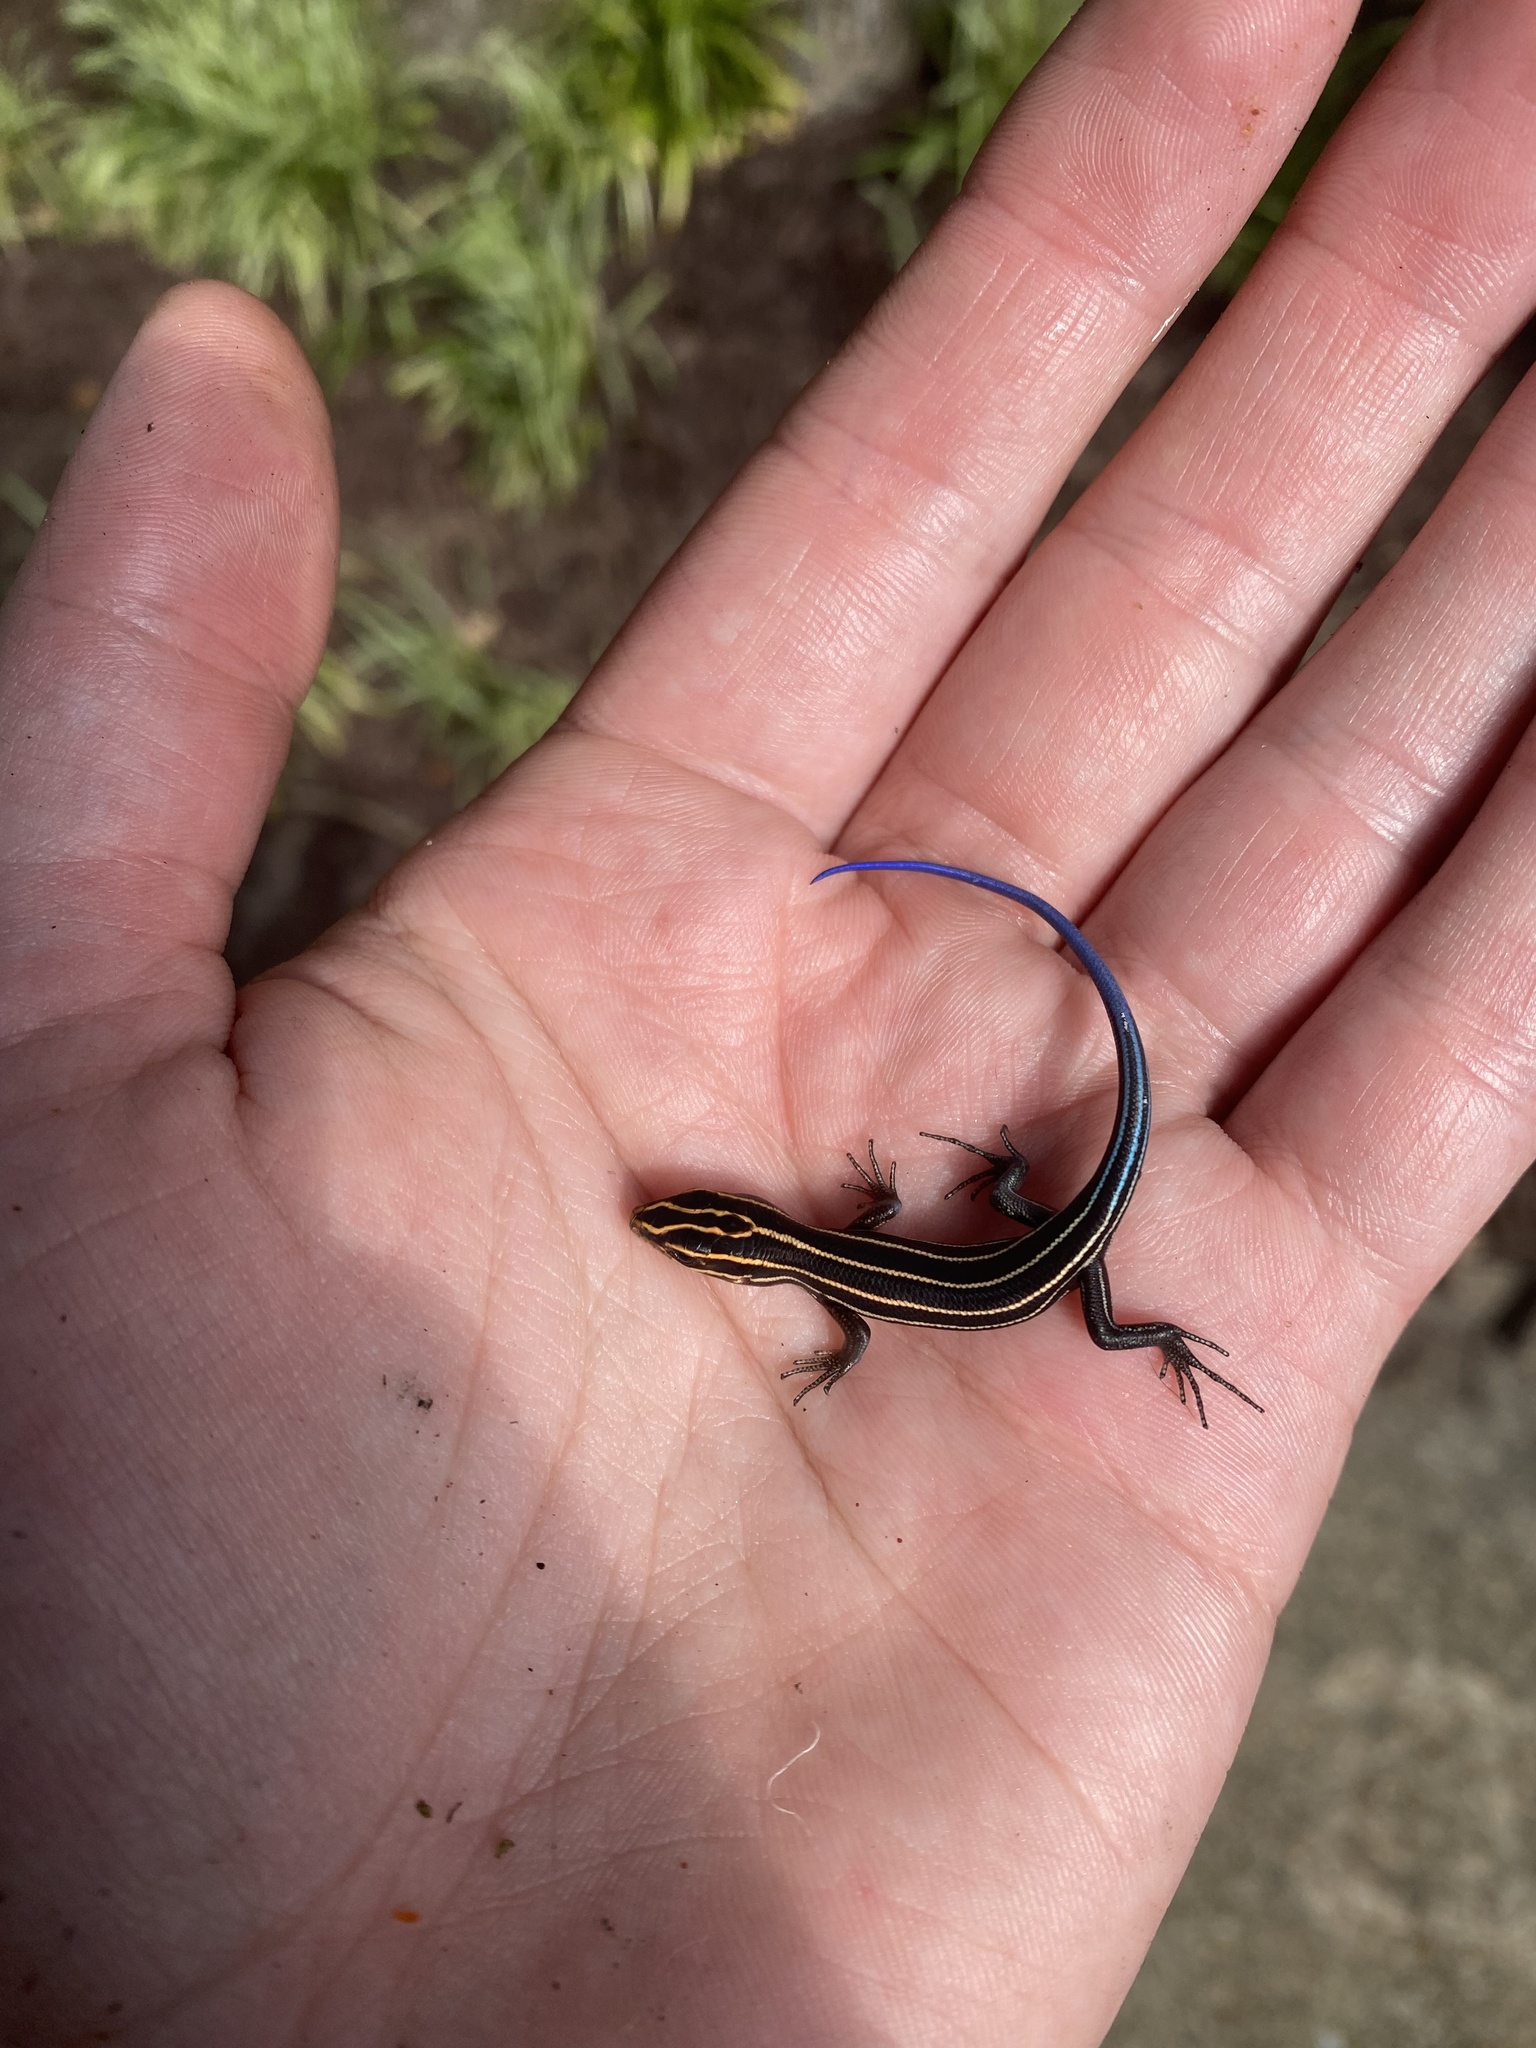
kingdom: Animalia
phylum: Chordata
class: Squamata
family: Scincidae
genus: Plestiodon
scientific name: Plestiodon fasciatus
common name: Five-lined skink
